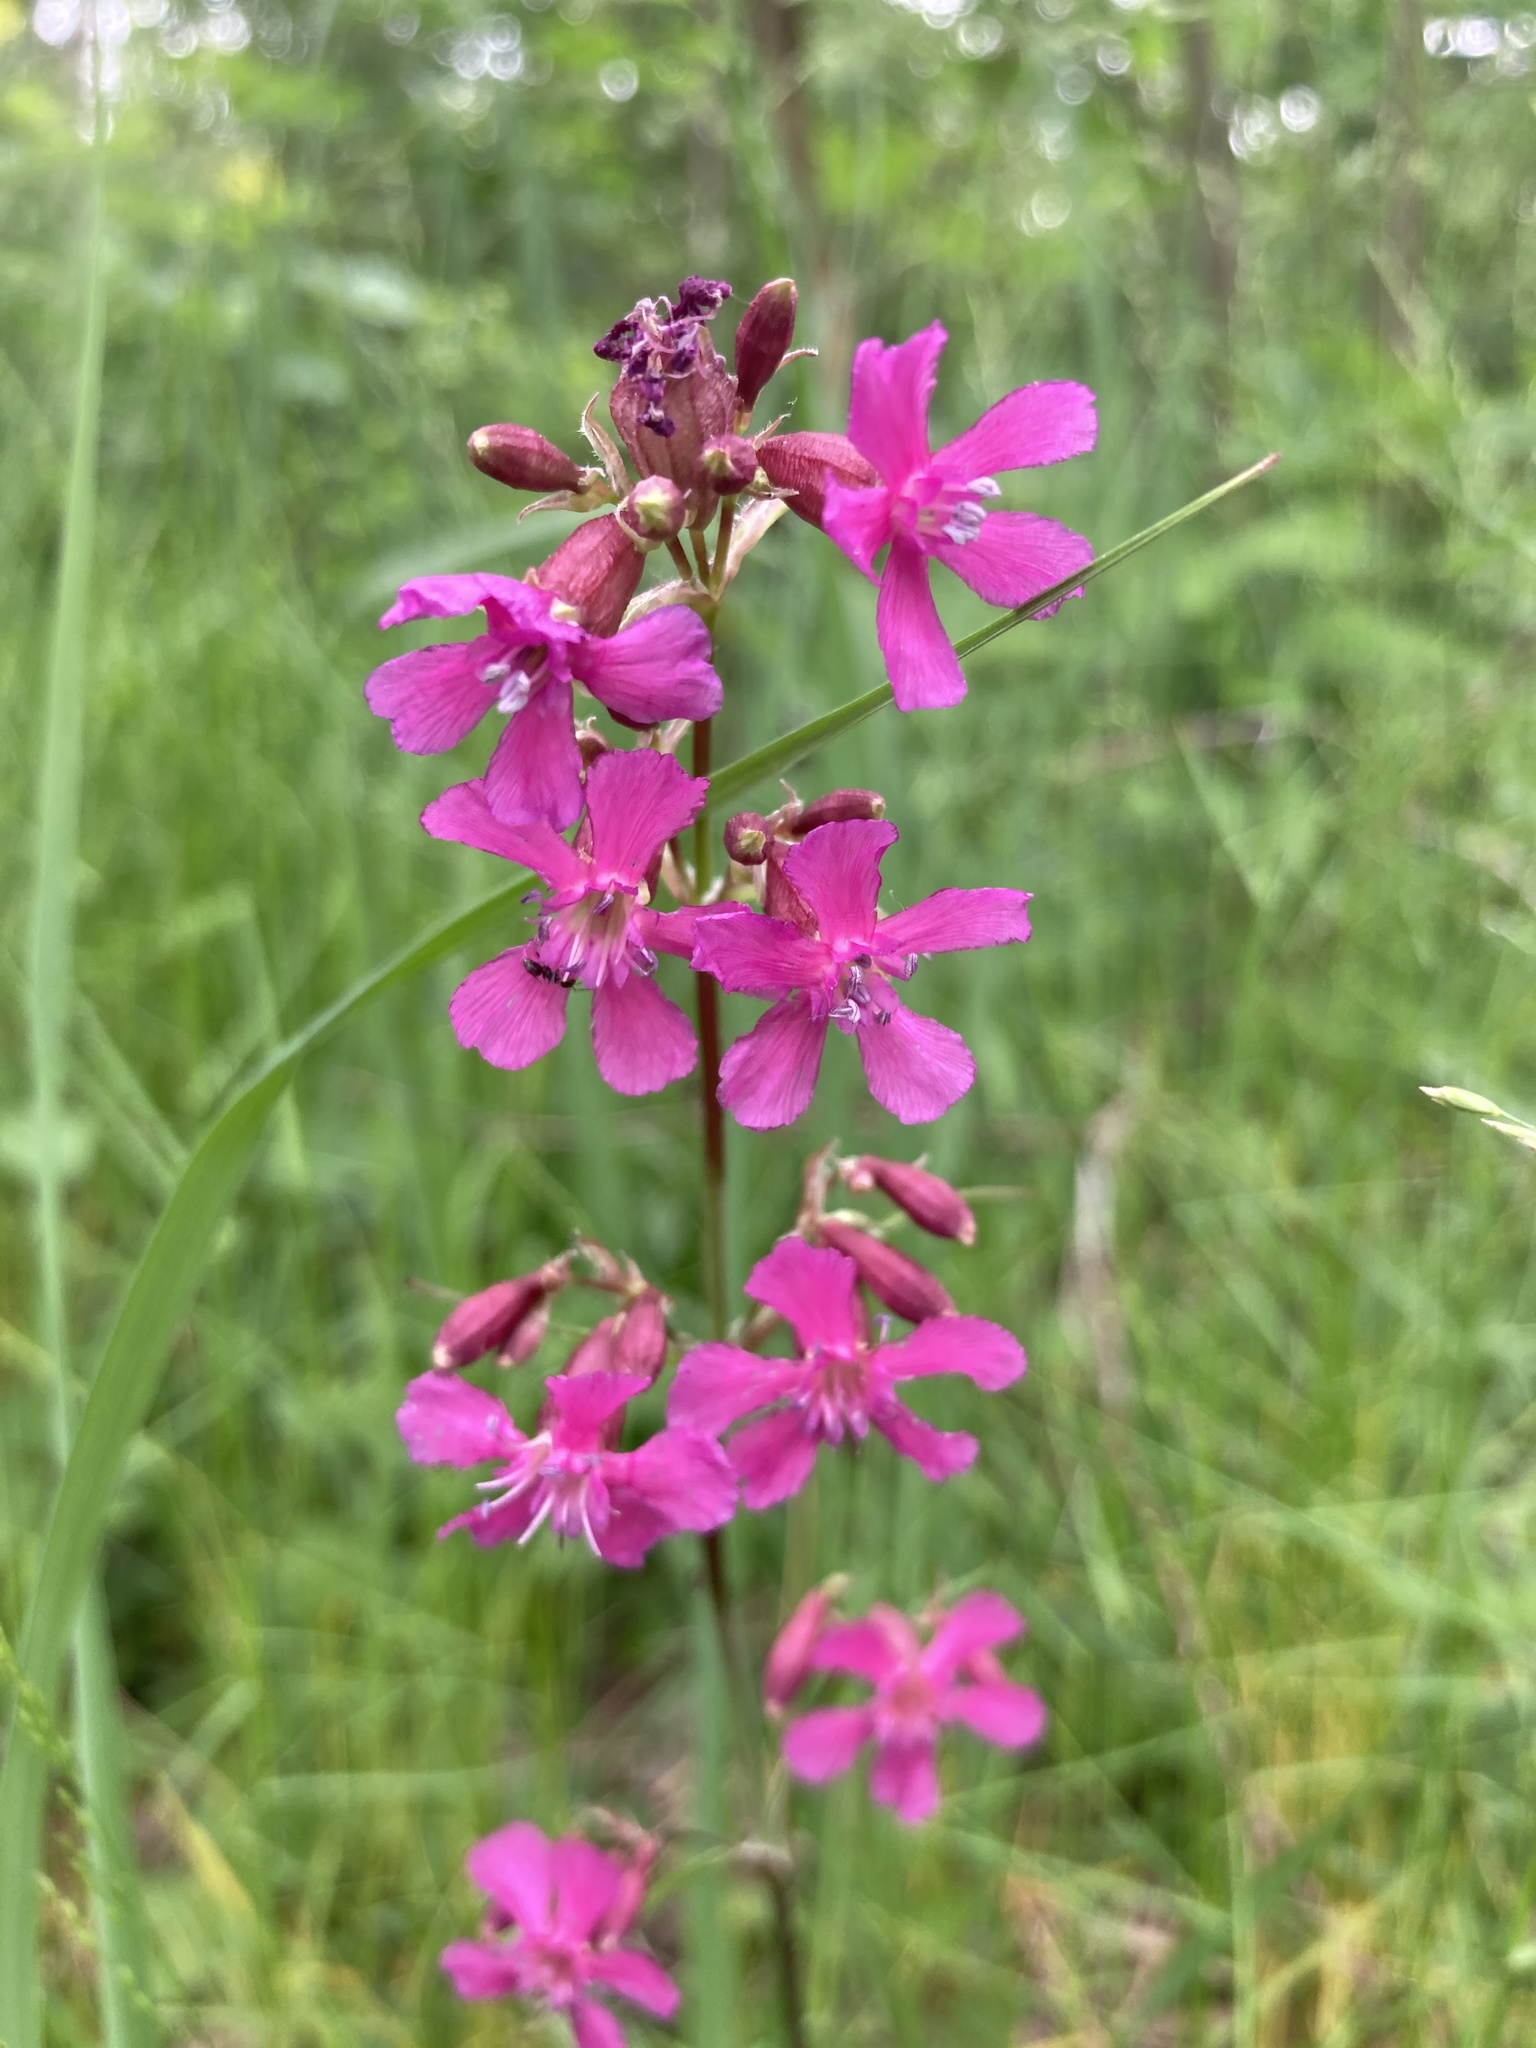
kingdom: Plantae
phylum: Tracheophyta
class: Magnoliopsida
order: Caryophyllales
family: Caryophyllaceae
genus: Viscaria
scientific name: Viscaria vulgaris
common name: Clammy campion
